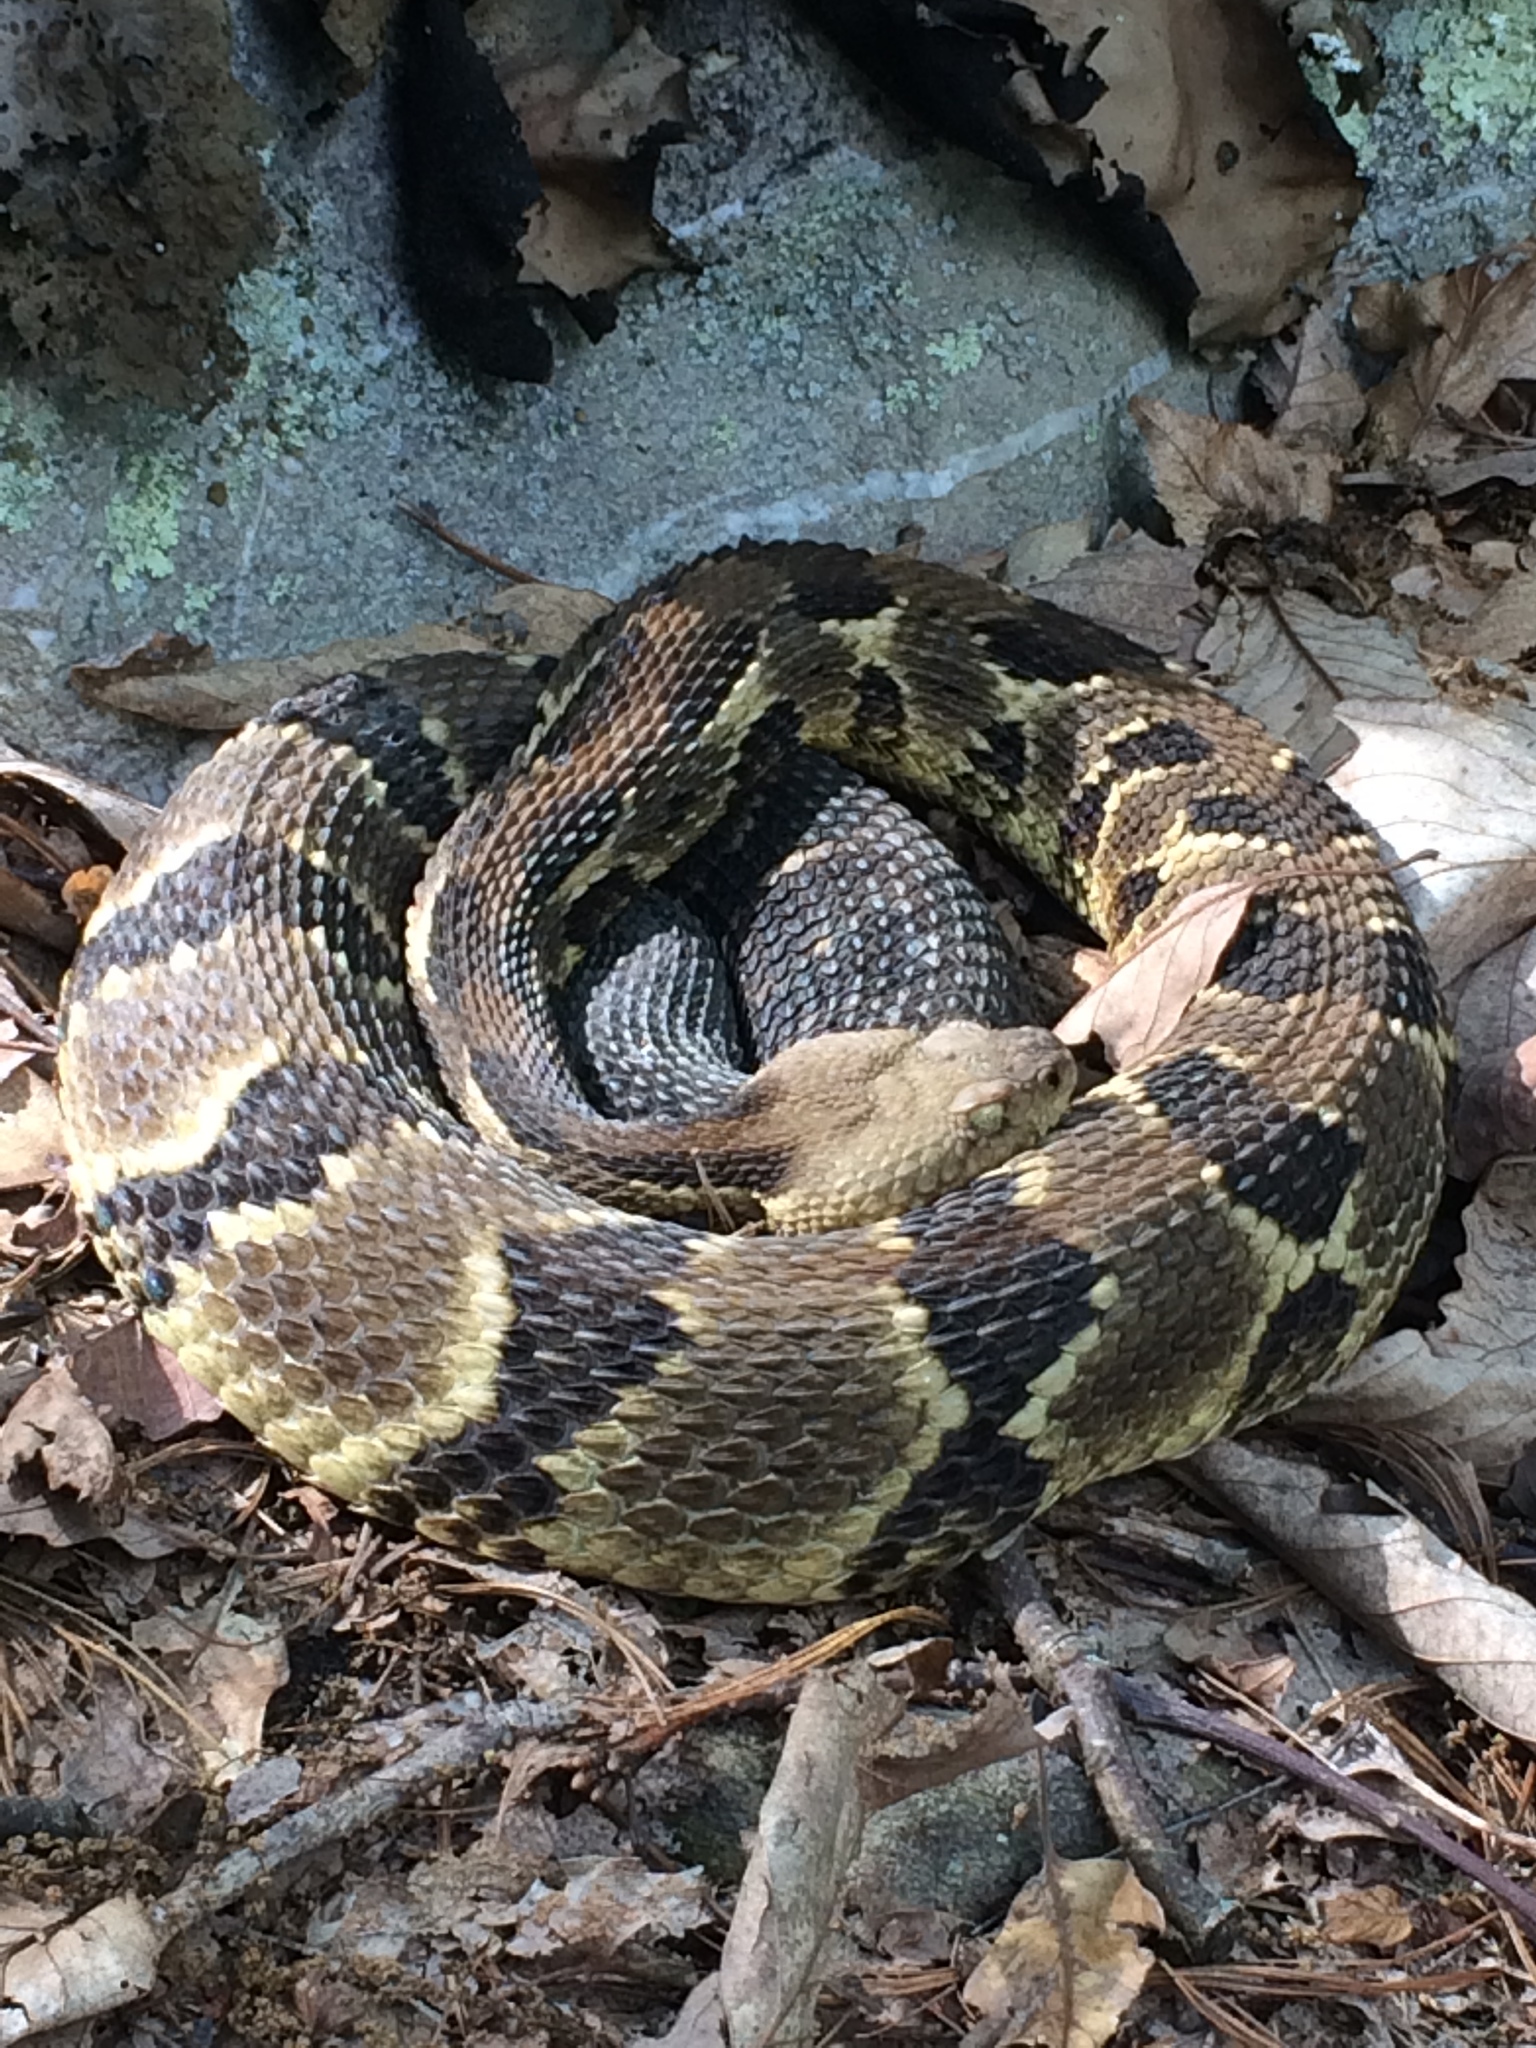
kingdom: Animalia
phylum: Chordata
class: Squamata
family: Viperidae
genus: Crotalus
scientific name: Crotalus horridus
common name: Timber rattlesnake
